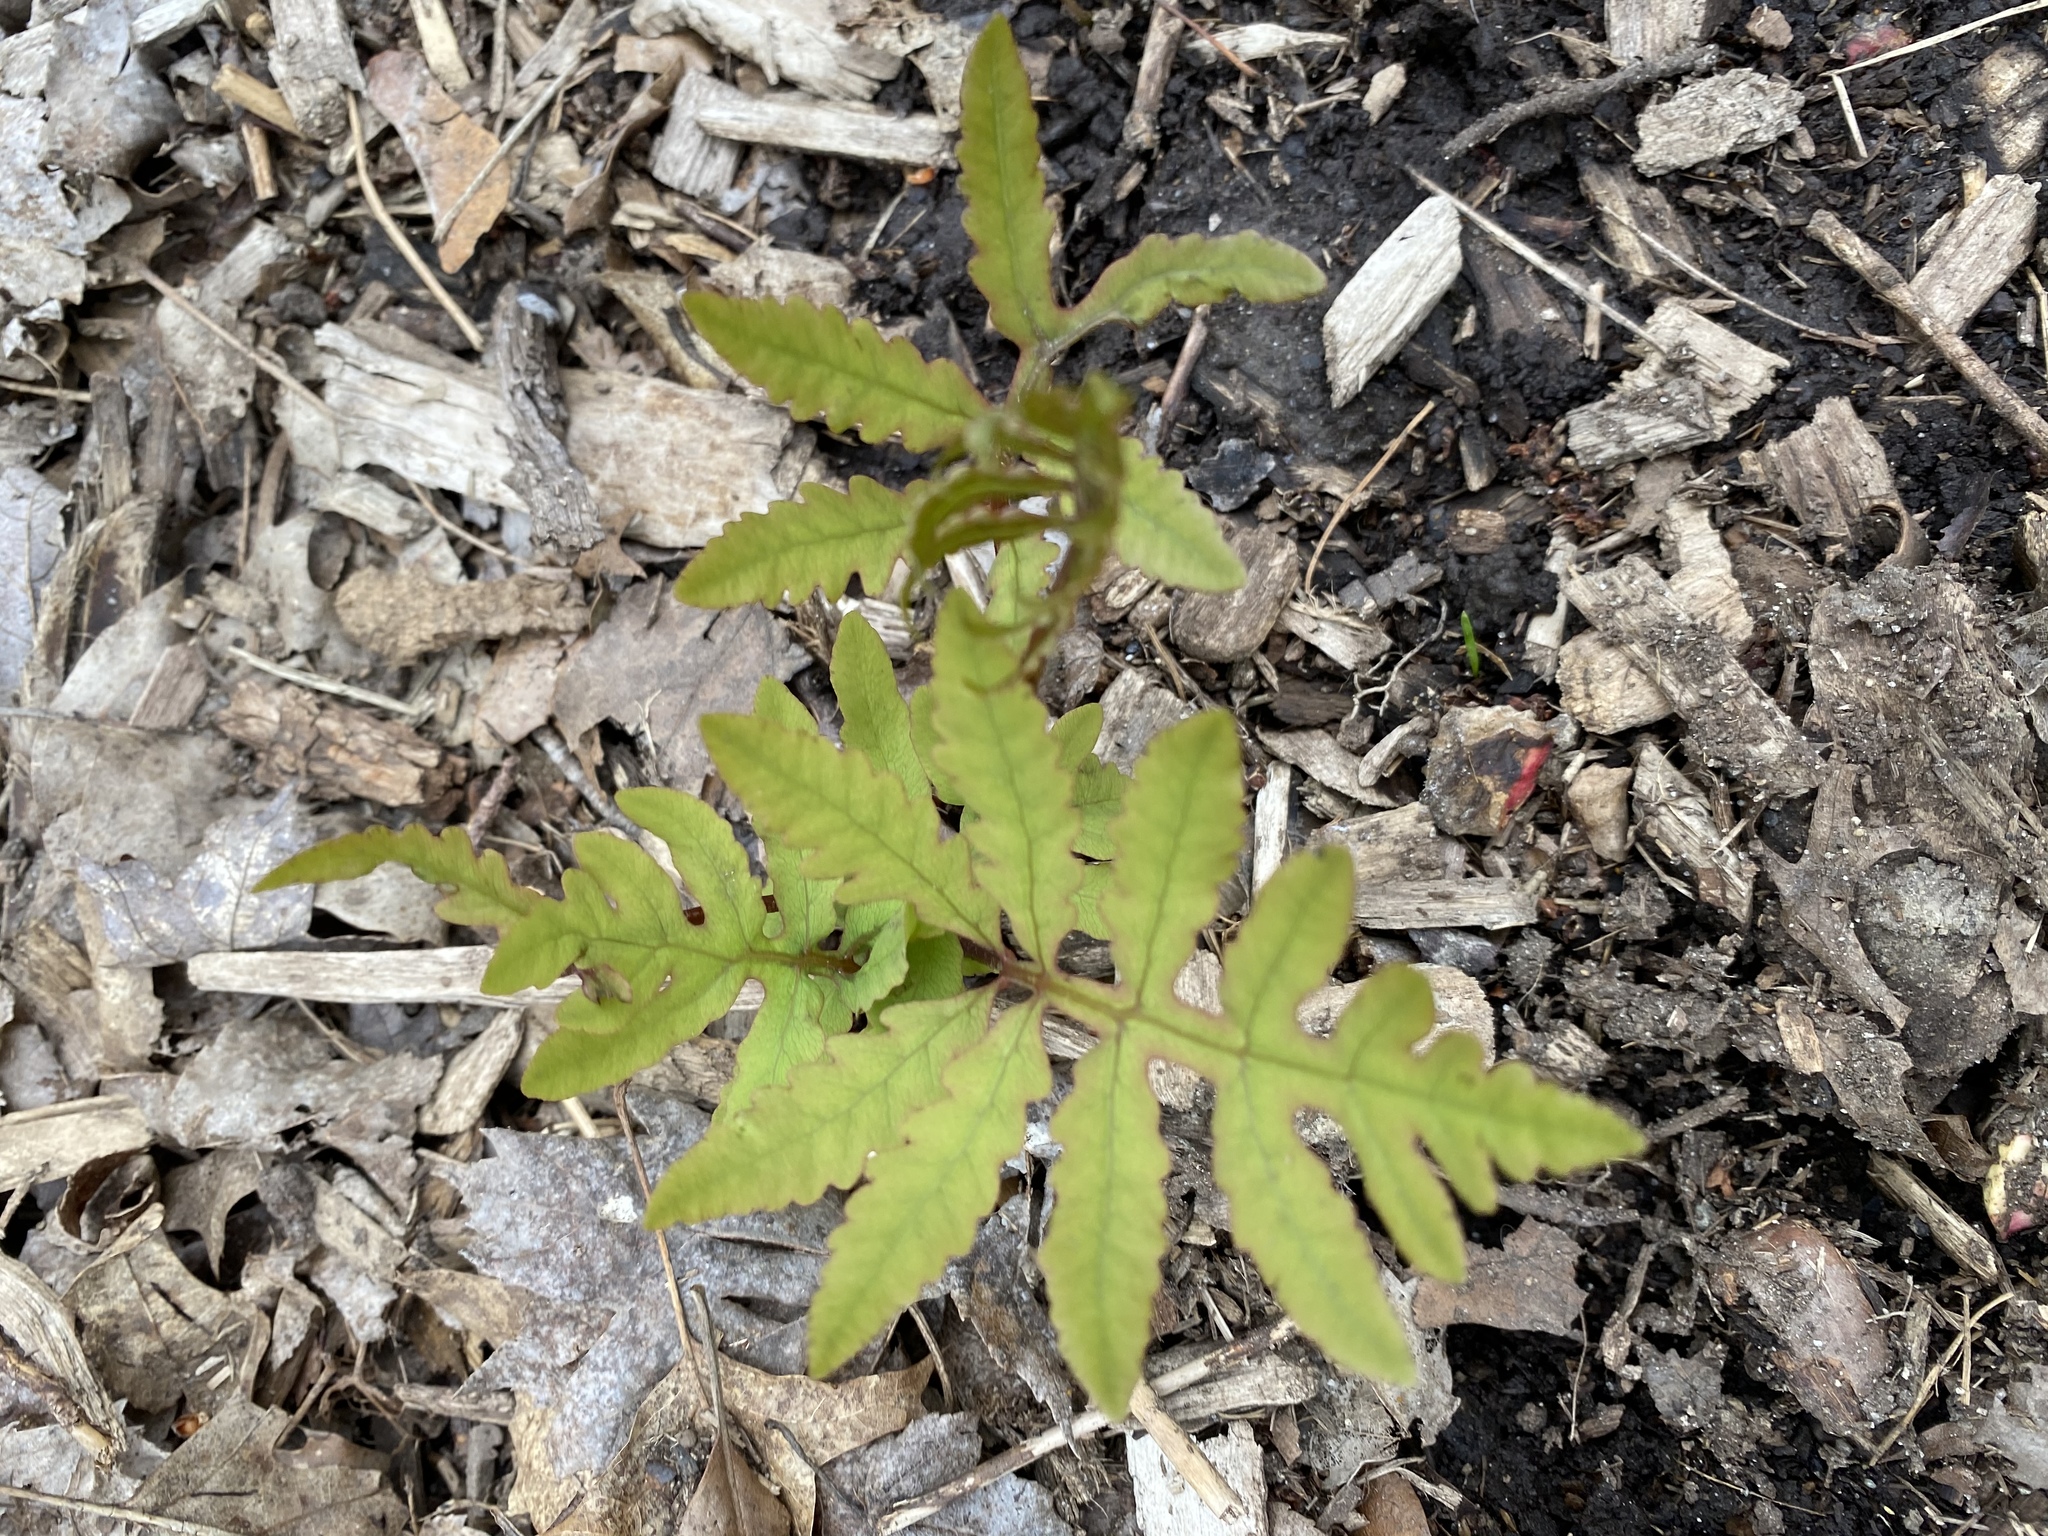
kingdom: Plantae
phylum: Tracheophyta
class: Polypodiopsida
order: Polypodiales
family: Onocleaceae
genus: Onoclea
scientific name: Onoclea sensibilis
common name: Sensitive fern
